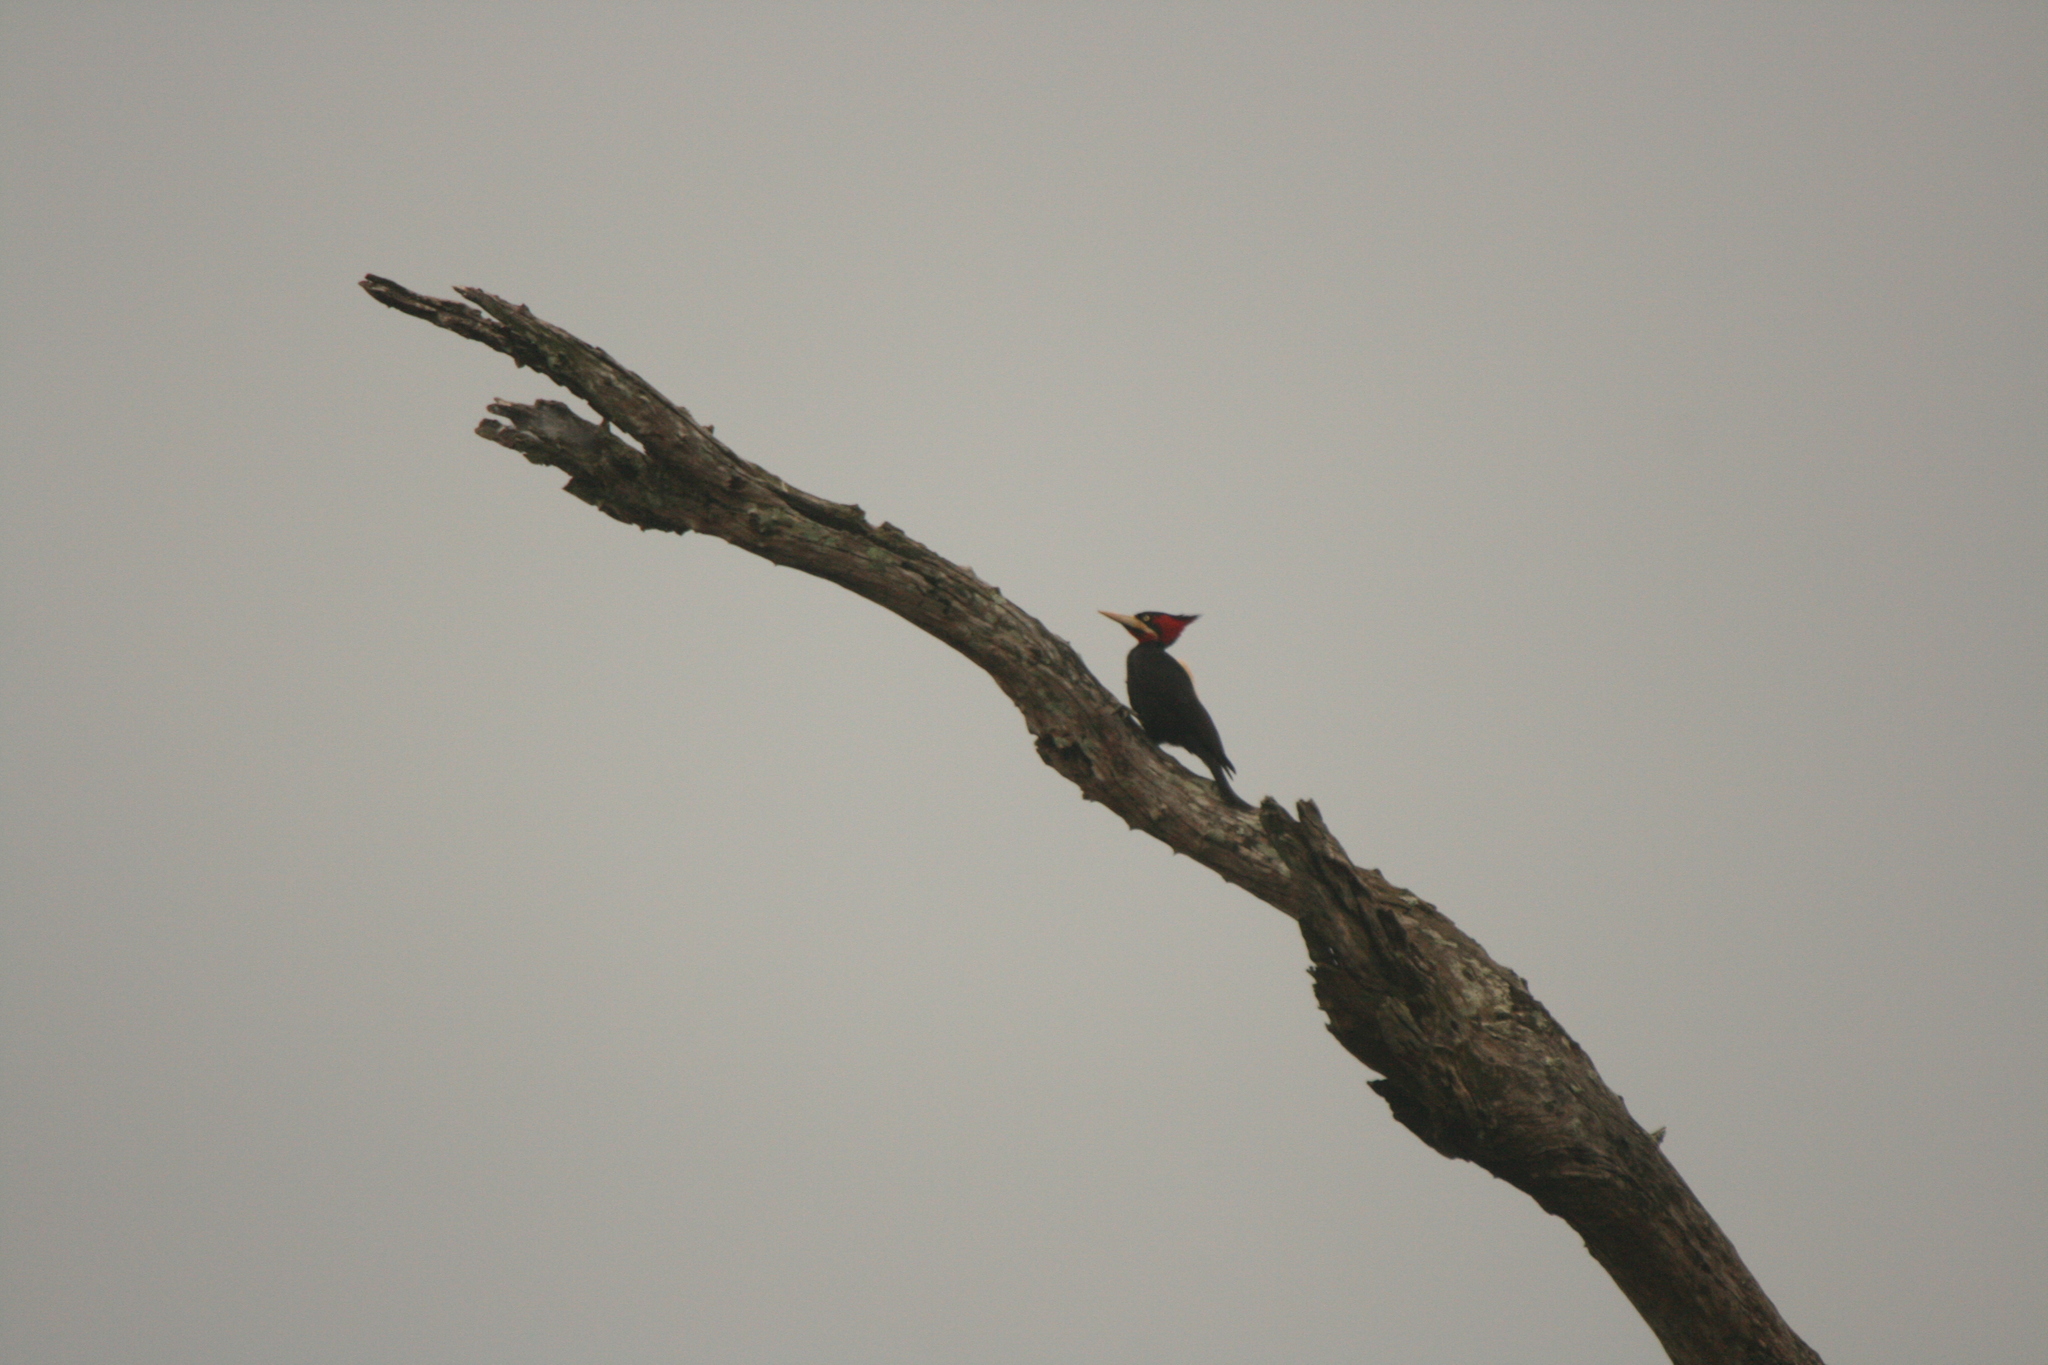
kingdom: Animalia
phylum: Chordata
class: Aves
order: Piciformes
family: Picidae
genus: Campephilus
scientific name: Campephilus leucopogon
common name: Cream-backed woodpecker
